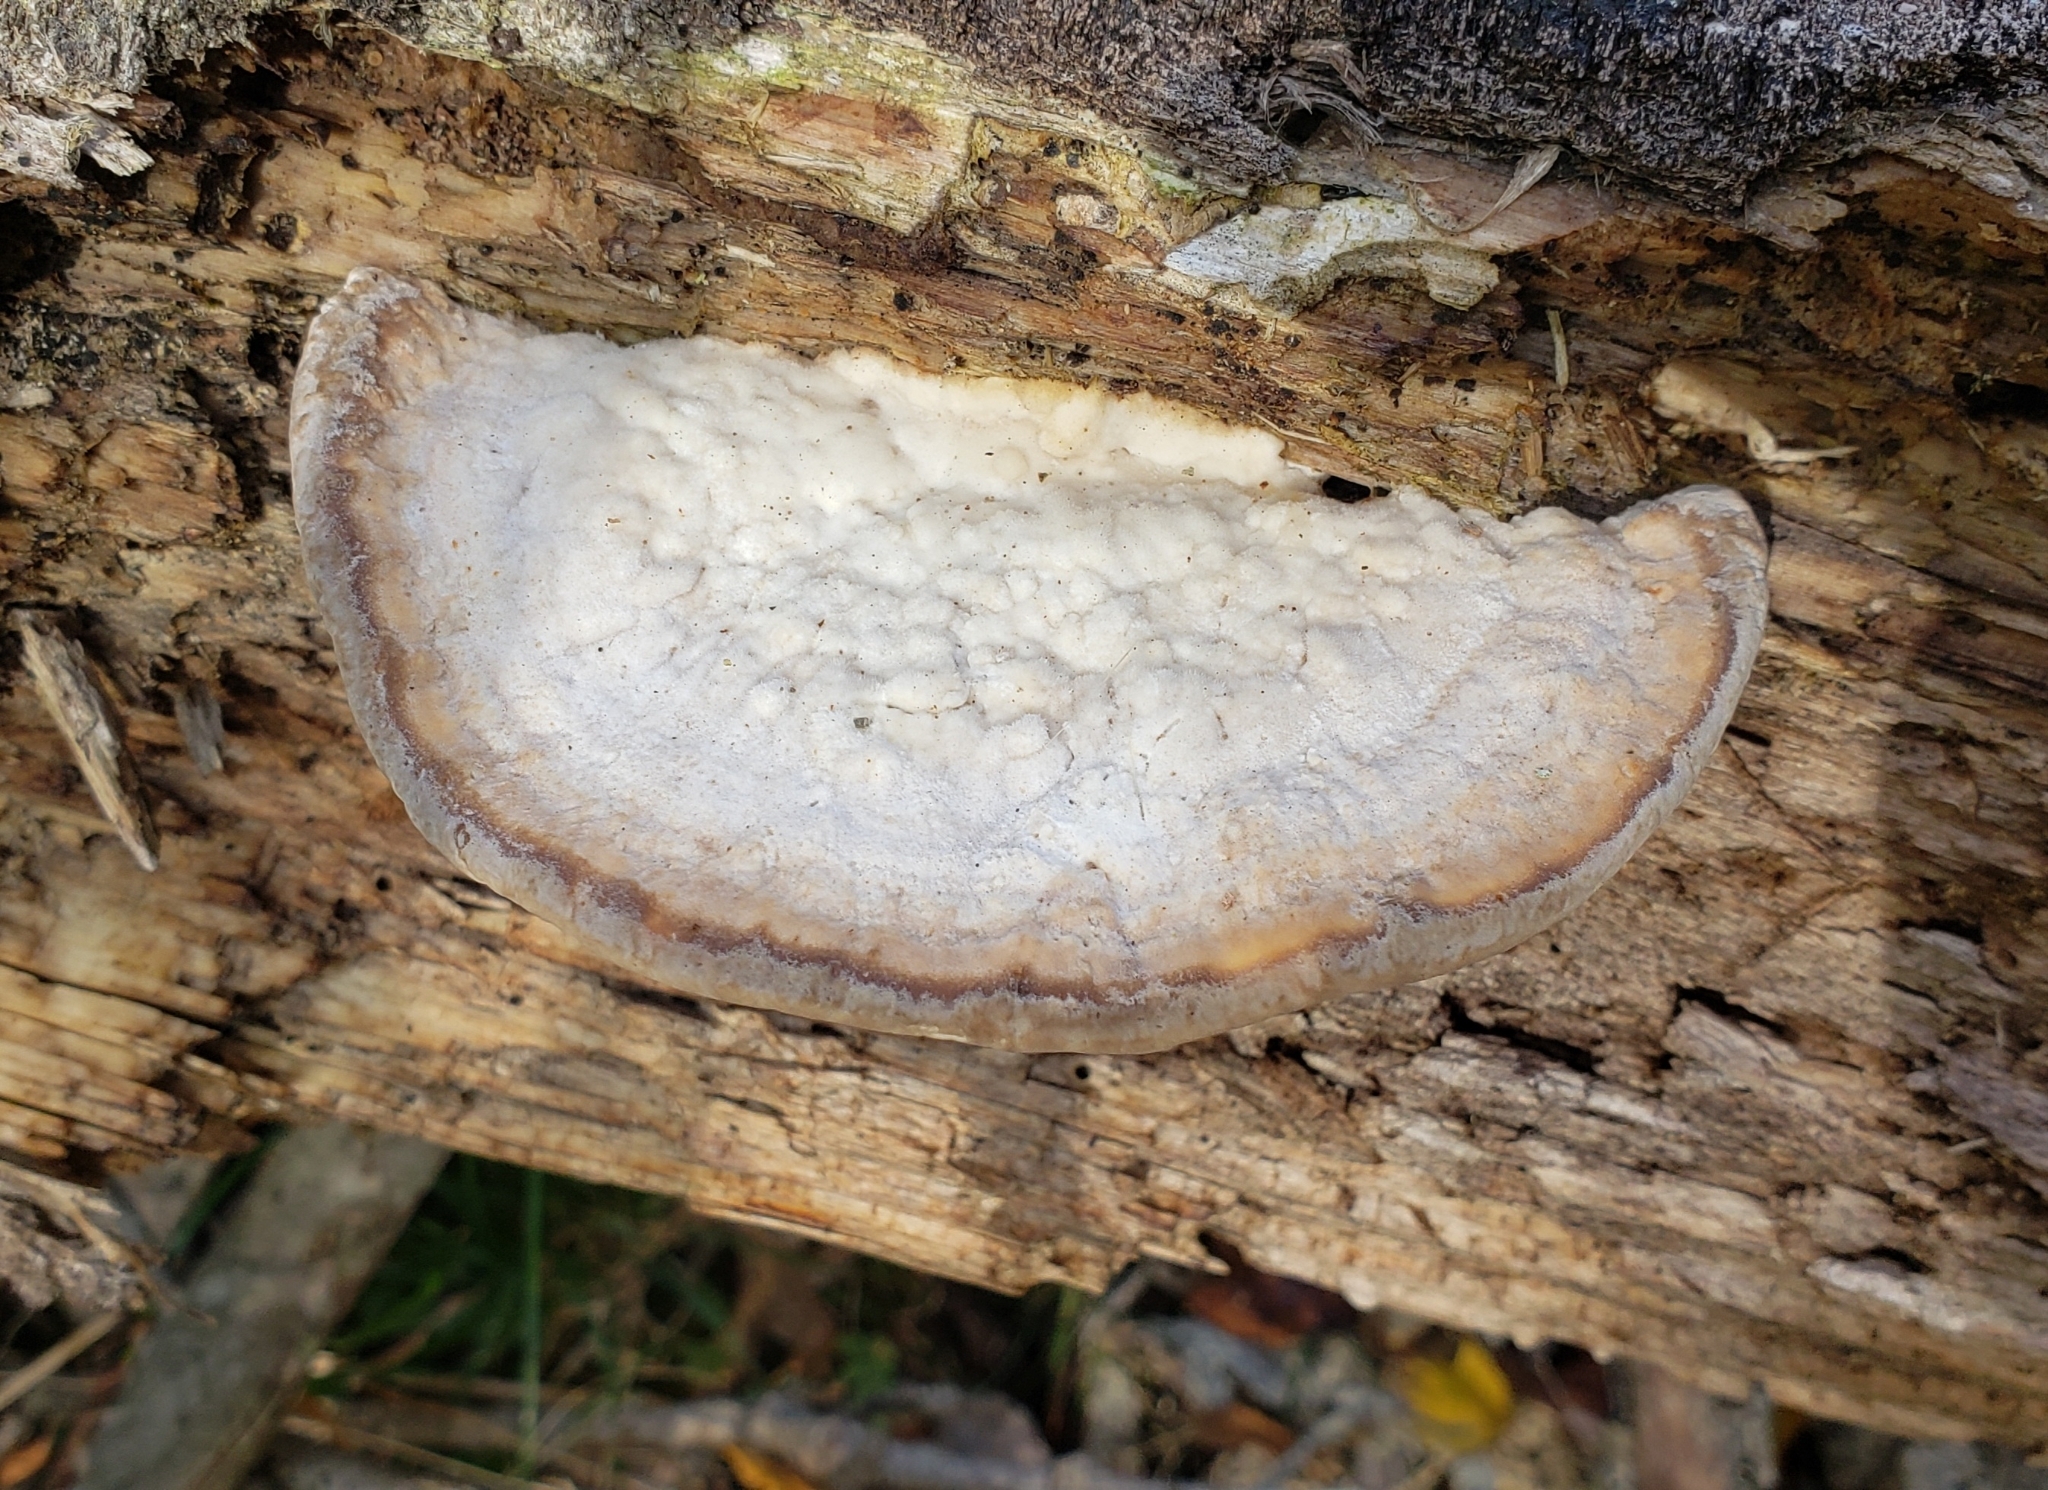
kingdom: Fungi
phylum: Basidiomycota
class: Agaricomycetes
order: Polyporales
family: Polyporaceae
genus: Trametes
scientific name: Trametes gibbosa
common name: Lumpy bracket
